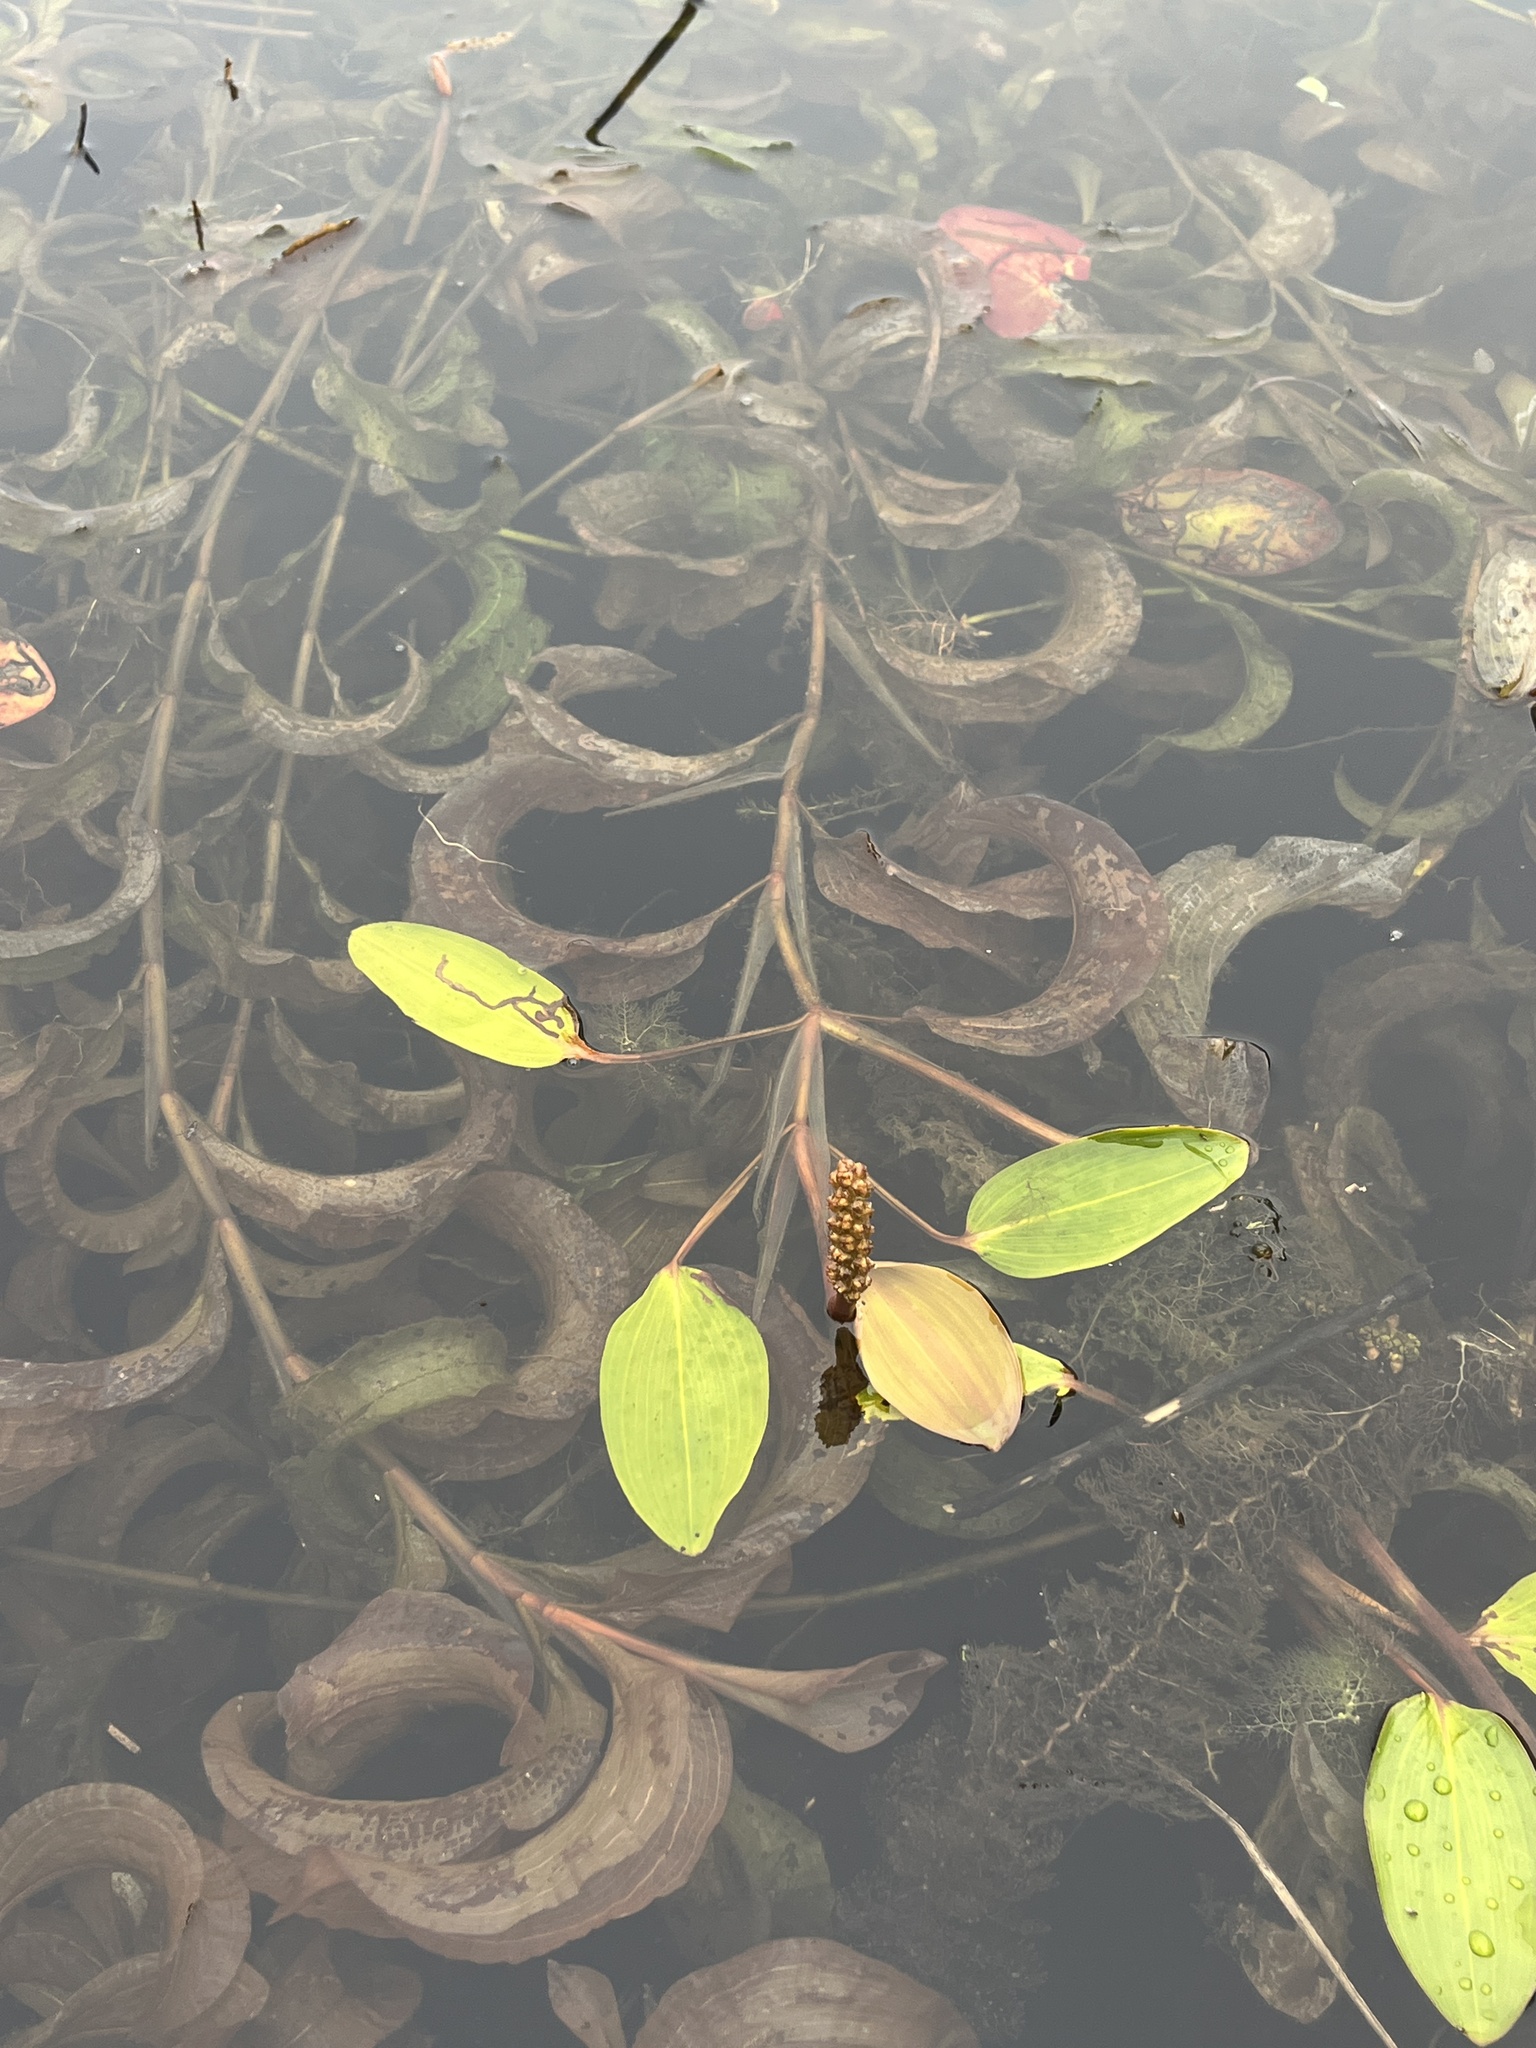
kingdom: Plantae
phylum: Tracheophyta
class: Liliopsida
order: Alismatales
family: Potamogetonaceae
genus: Potamogeton
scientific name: Potamogeton amplifolius
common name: Broad-leaved pondweed
